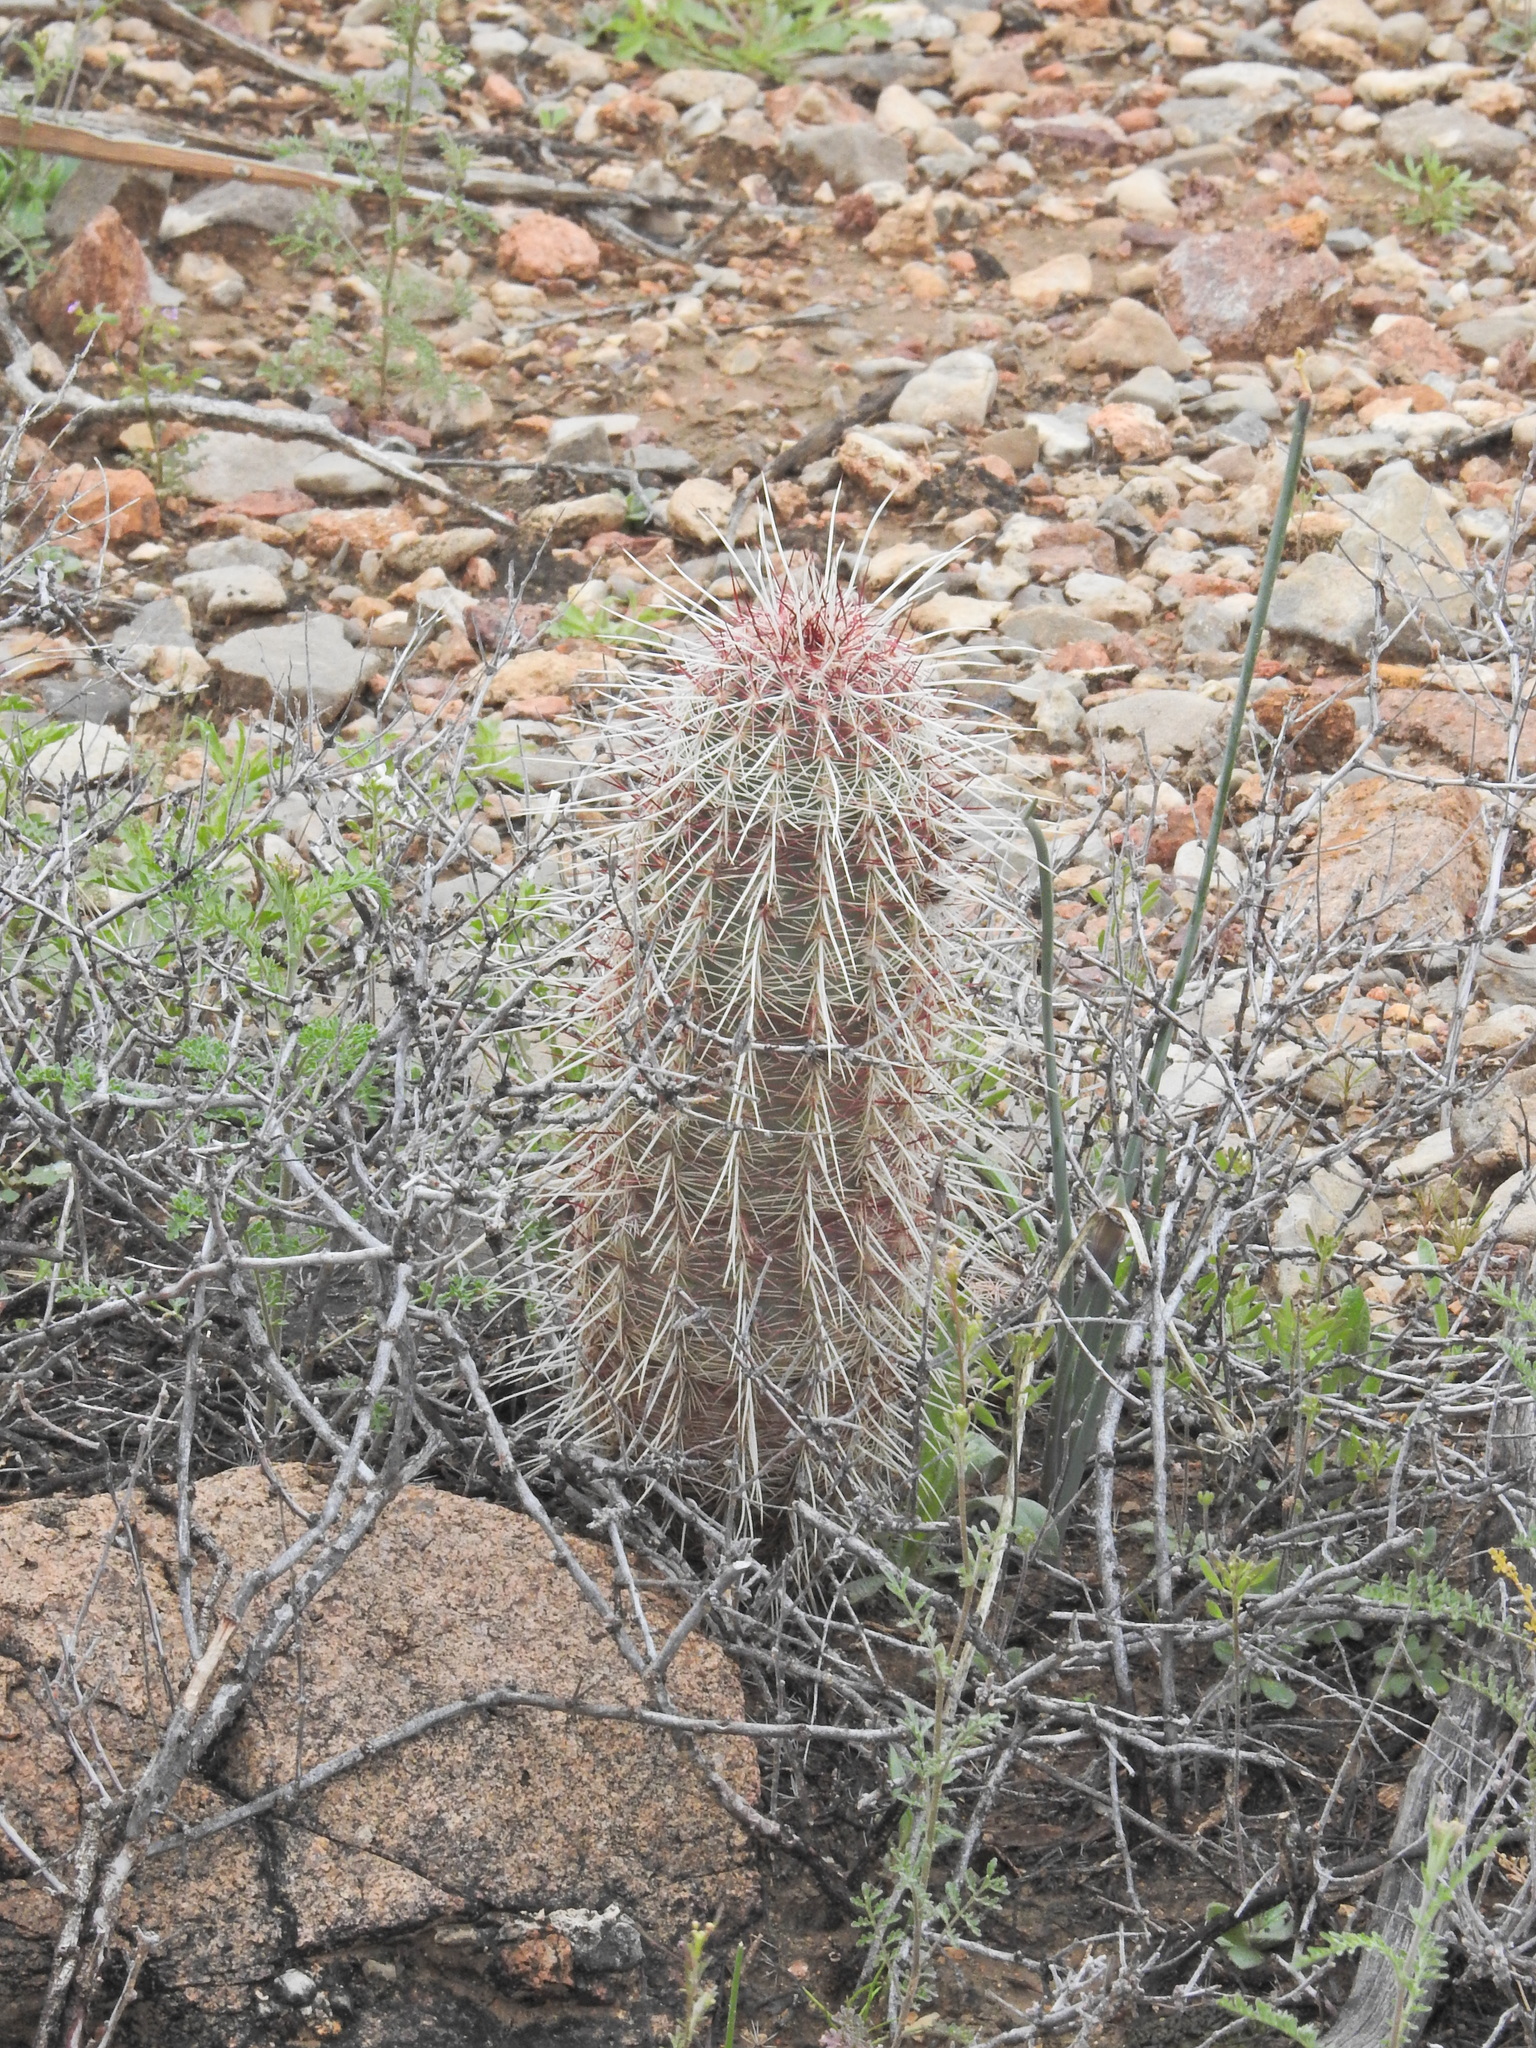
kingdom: Plantae
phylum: Tracheophyta
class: Magnoliopsida
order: Caryophyllales
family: Cactaceae
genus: Echinocereus
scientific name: Echinocereus viridiflorus
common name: Nylon hedgehog cactus
